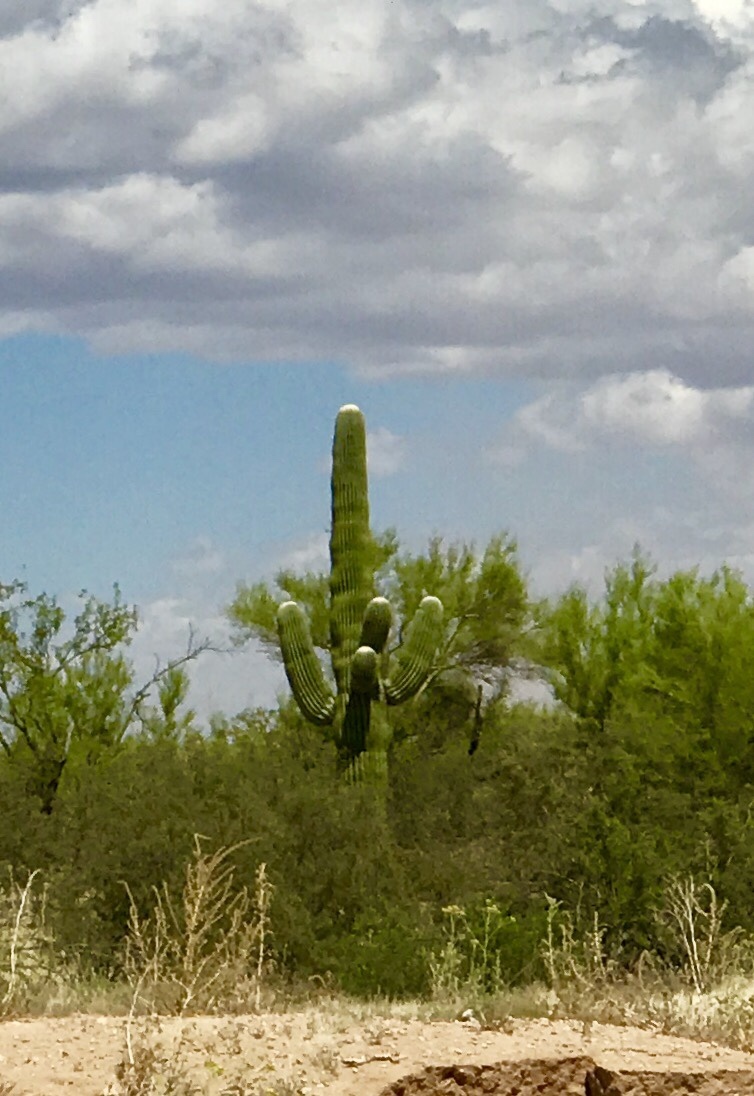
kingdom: Plantae
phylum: Tracheophyta
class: Magnoliopsida
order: Caryophyllales
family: Cactaceae
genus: Carnegiea
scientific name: Carnegiea gigantea
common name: Saguaro
